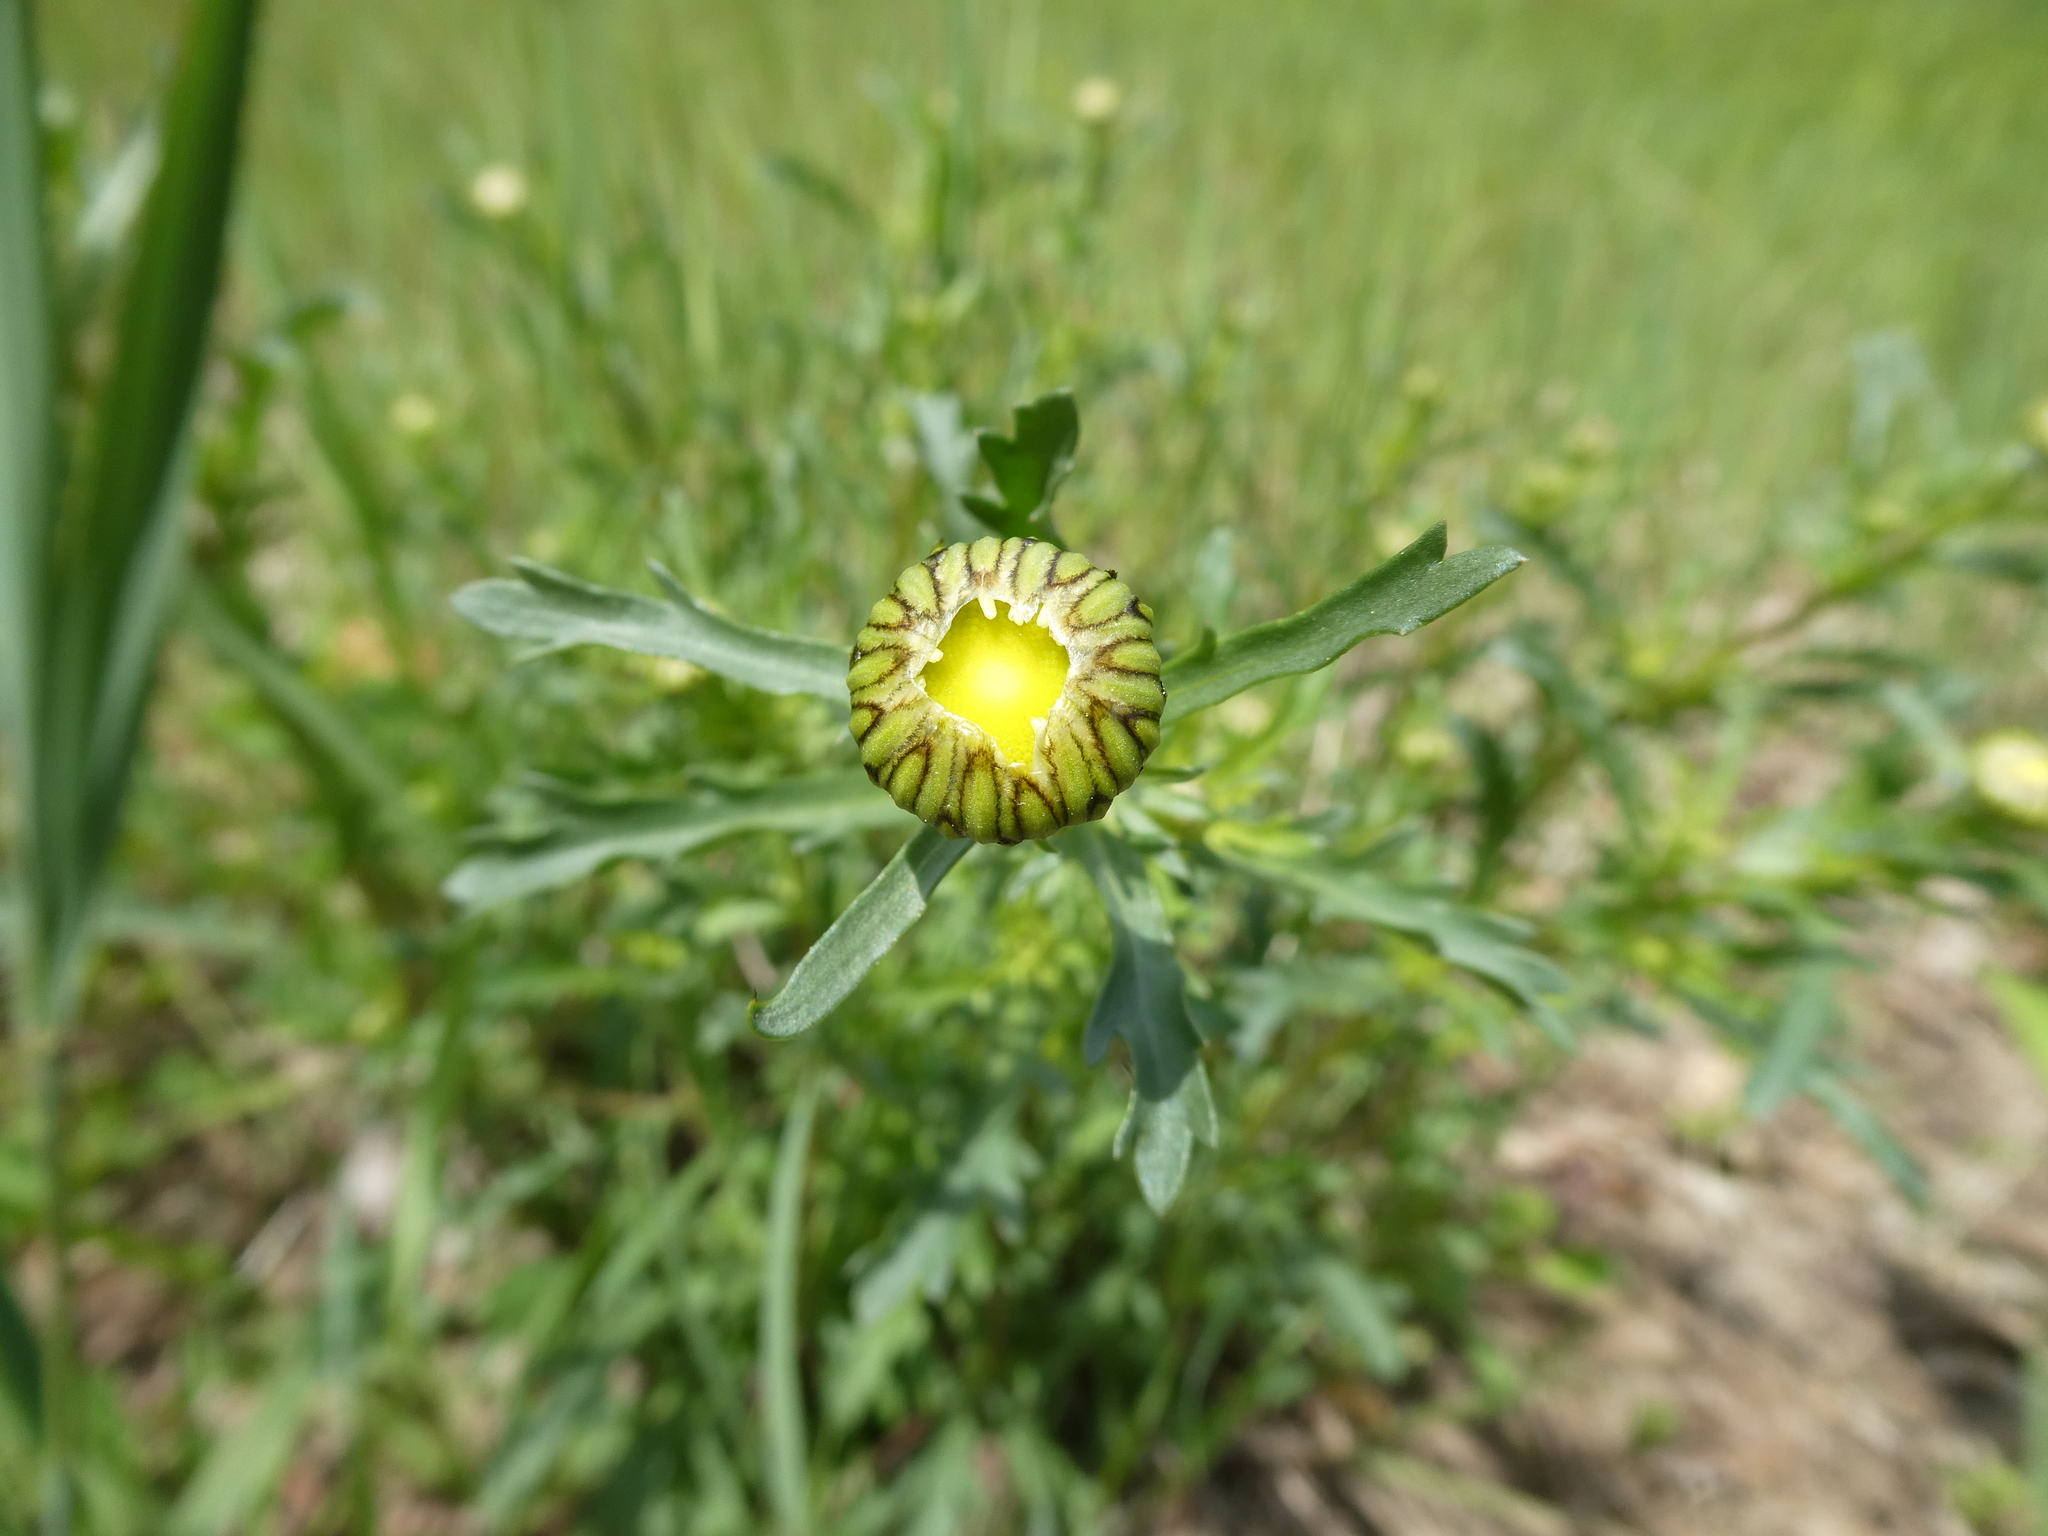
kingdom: Plantae
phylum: Tracheophyta
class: Magnoliopsida
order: Asterales
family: Asteraceae
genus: Leucanthemum
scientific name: Leucanthemum vulgare
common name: Oxeye daisy
